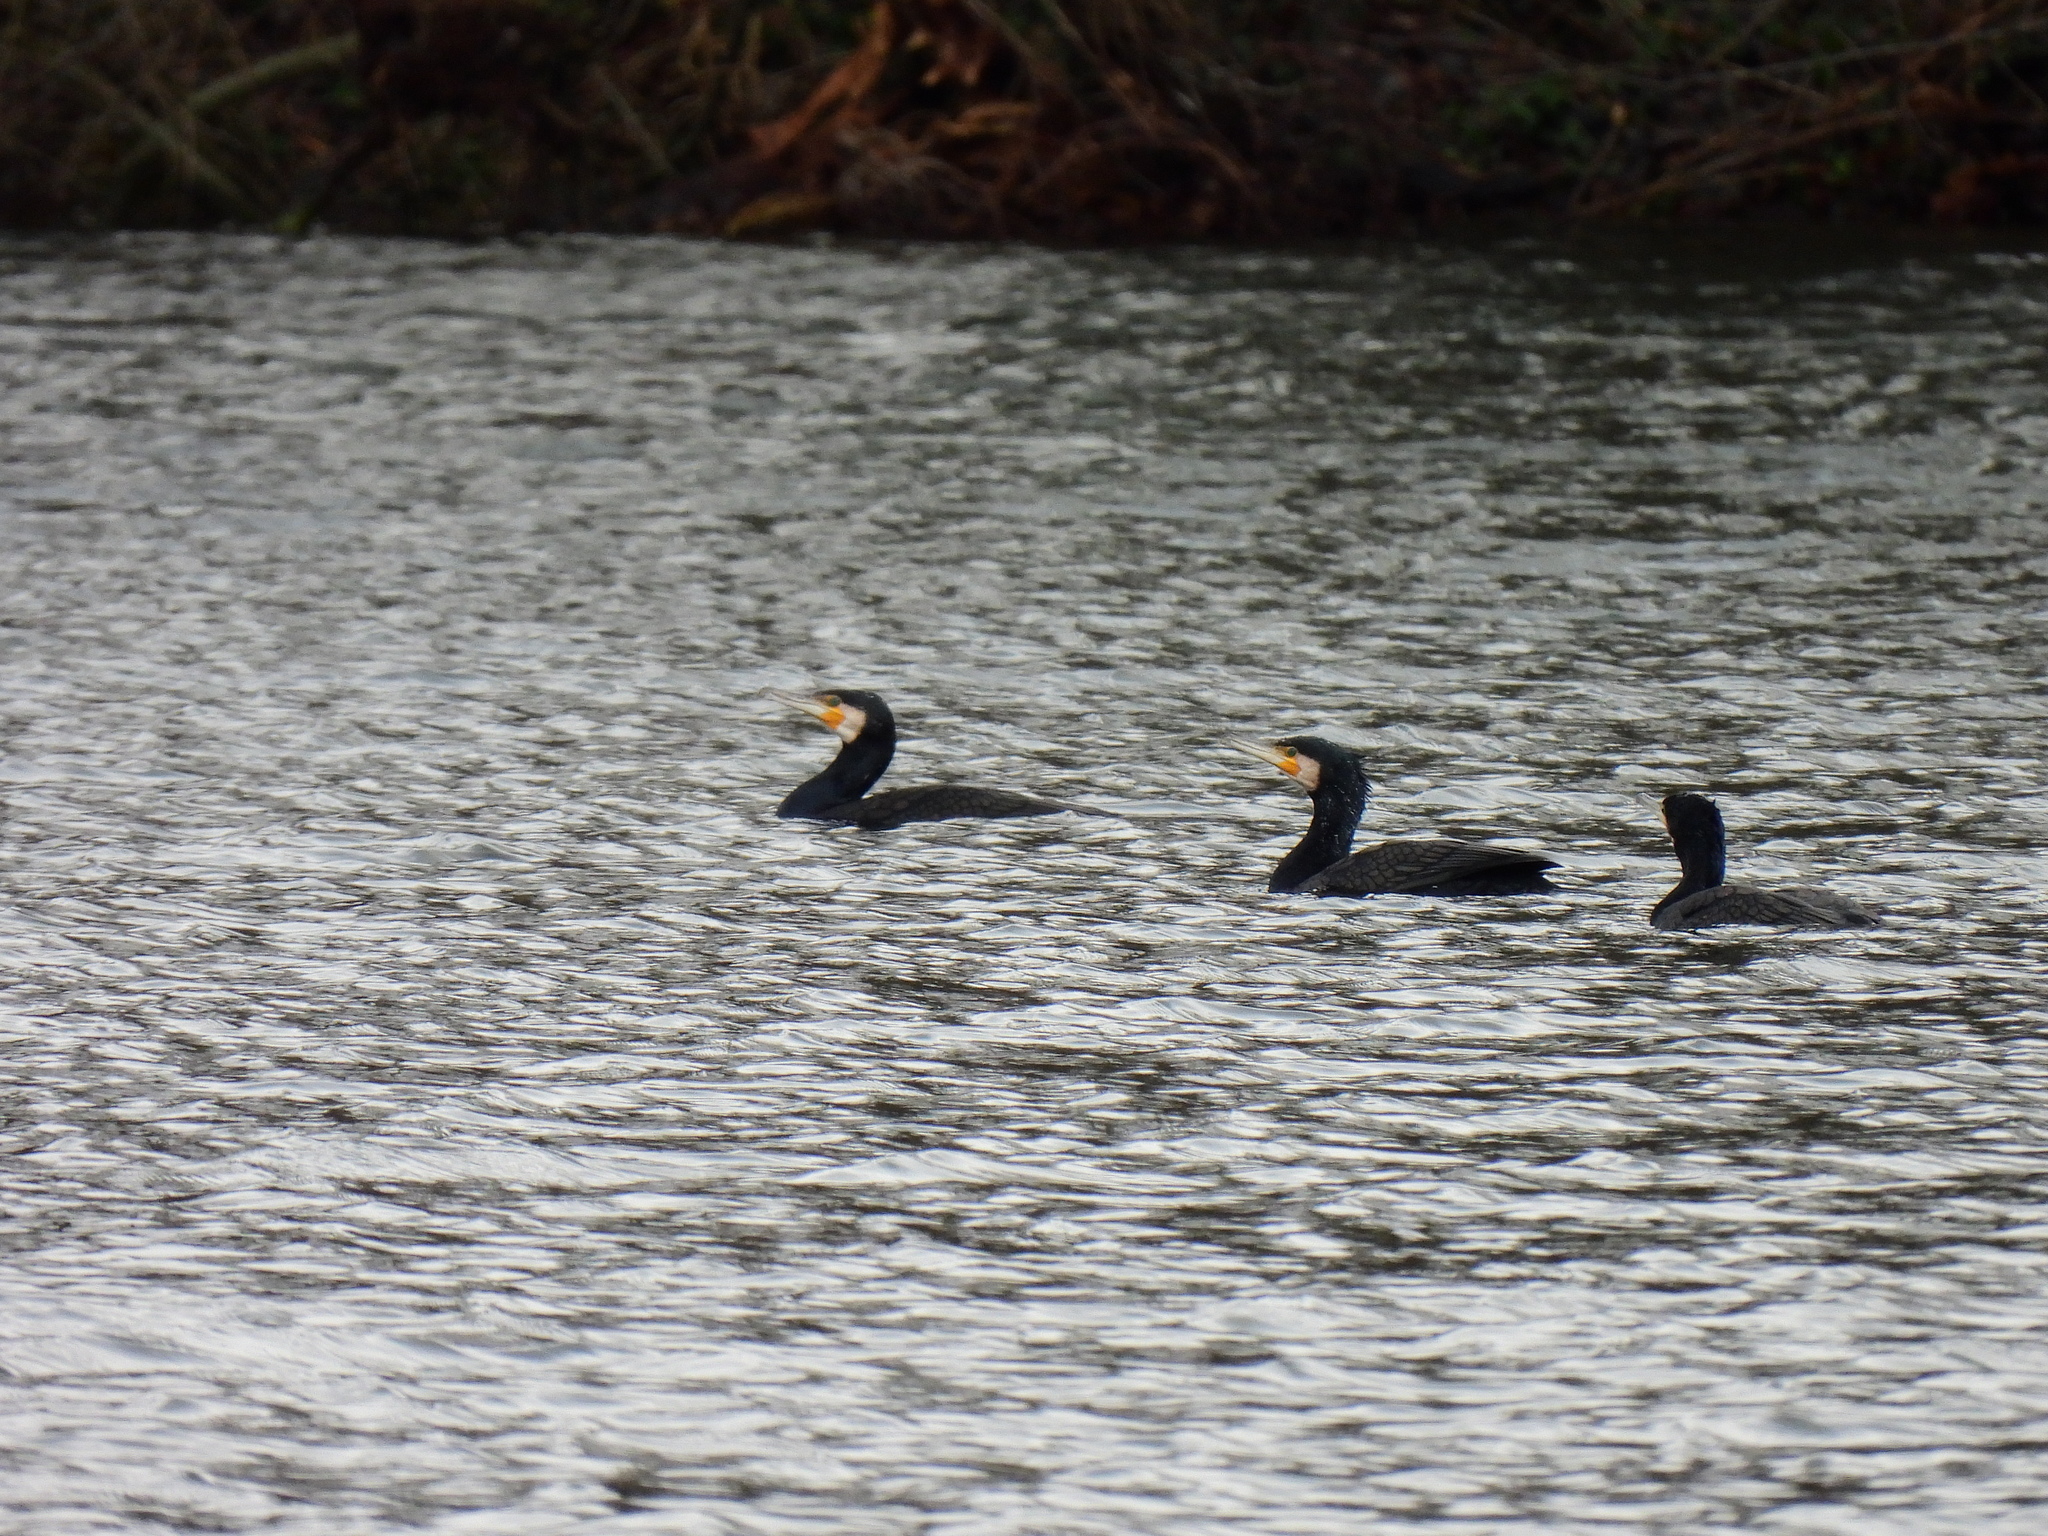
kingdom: Animalia
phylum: Chordata
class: Aves
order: Suliformes
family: Phalacrocoracidae
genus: Phalacrocorax
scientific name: Phalacrocorax carbo
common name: Great cormorant
